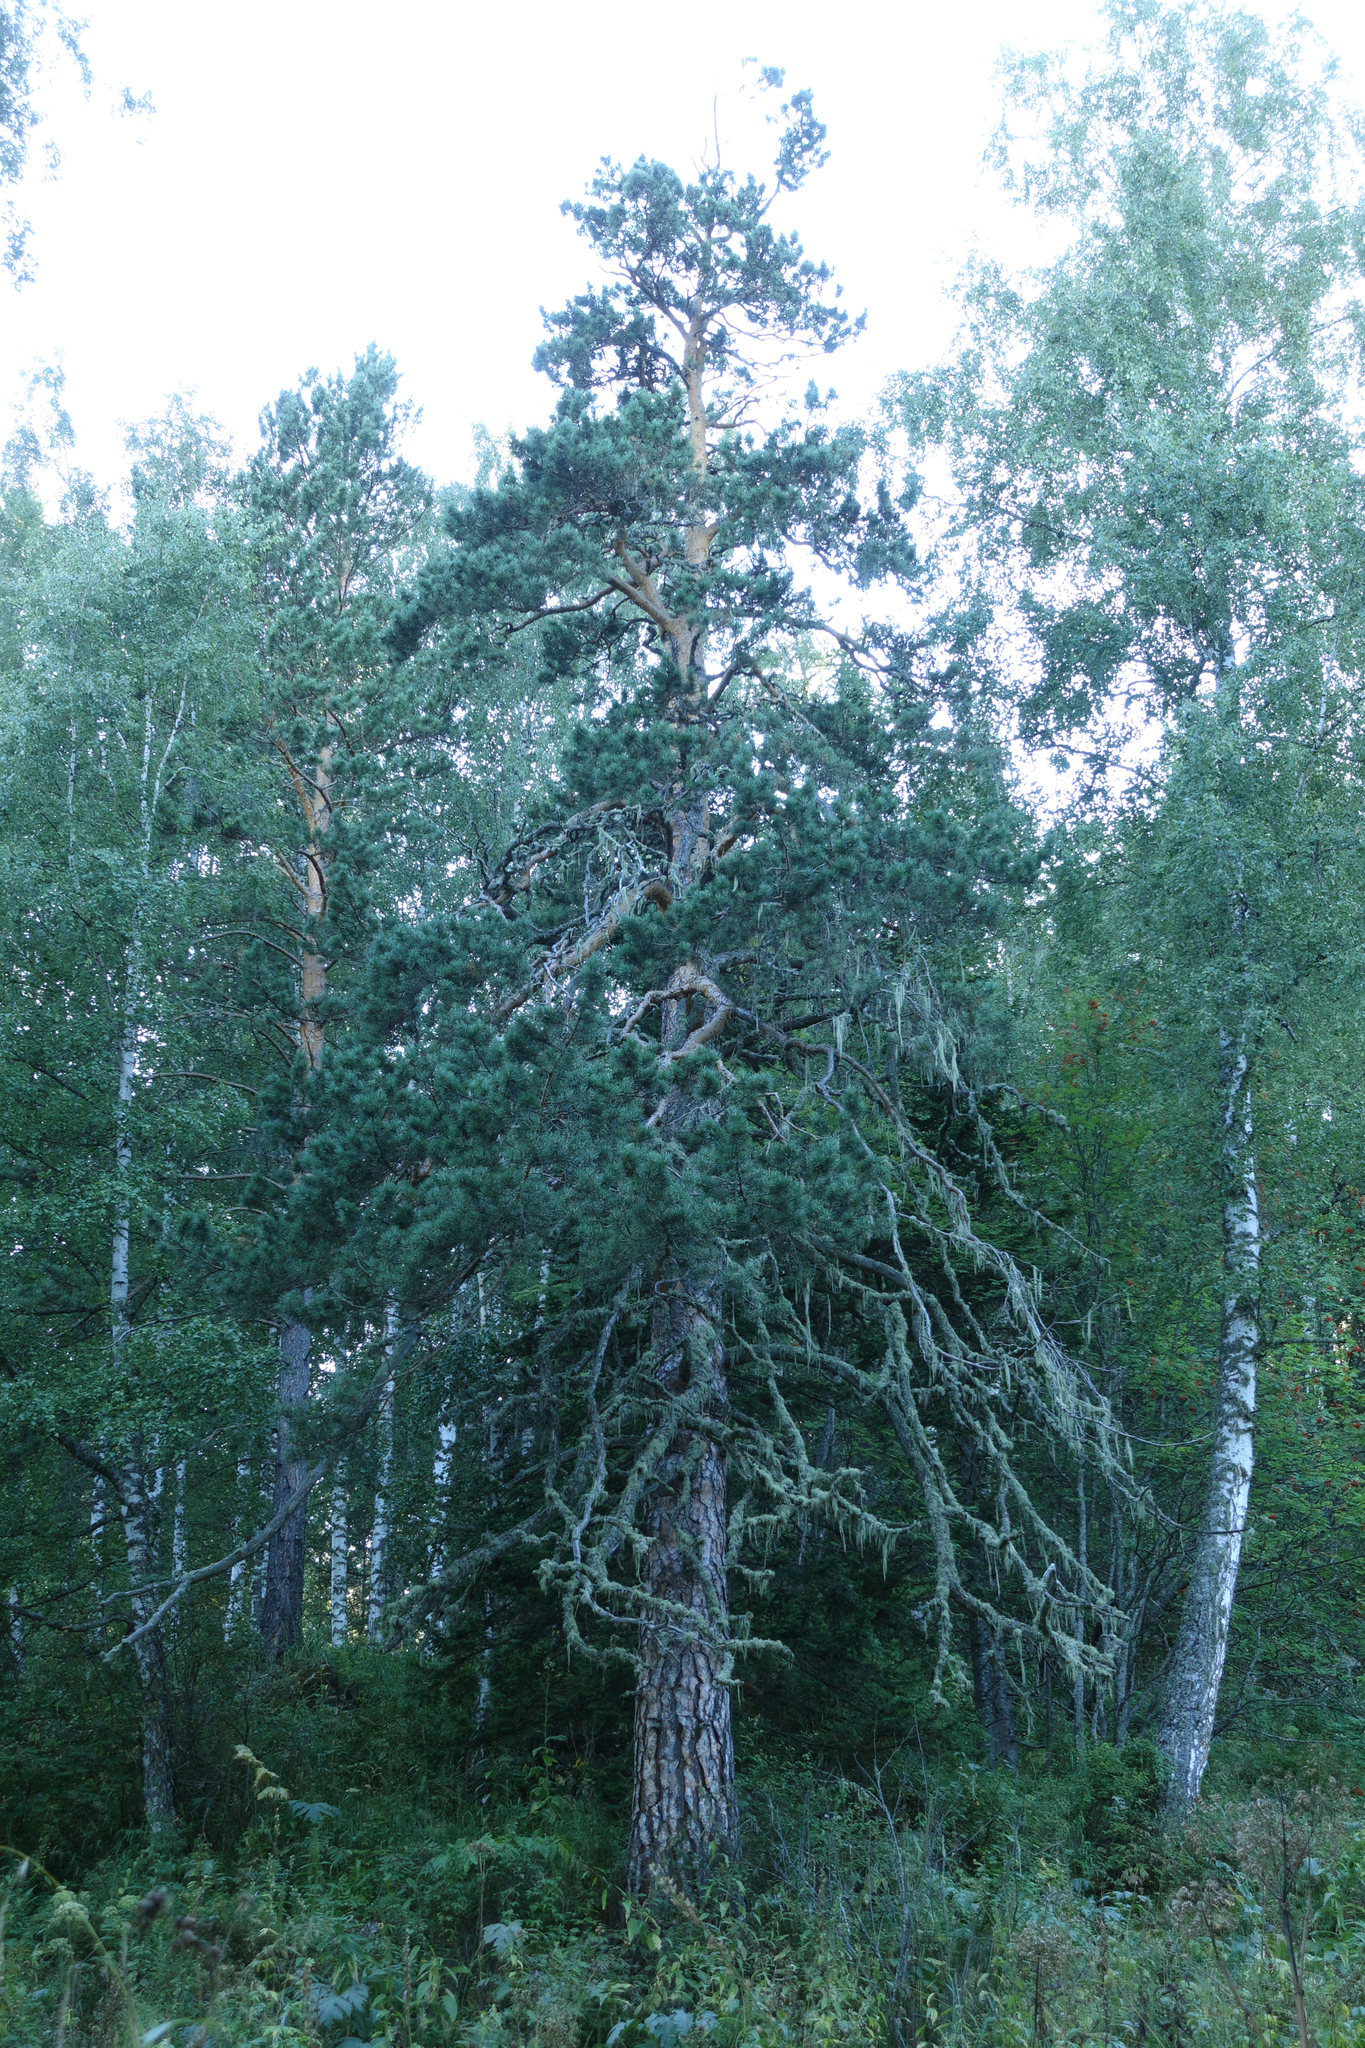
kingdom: Plantae
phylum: Tracheophyta
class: Pinopsida
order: Pinales
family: Pinaceae
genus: Pinus
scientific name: Pinus sylvestris
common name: Scots pine
